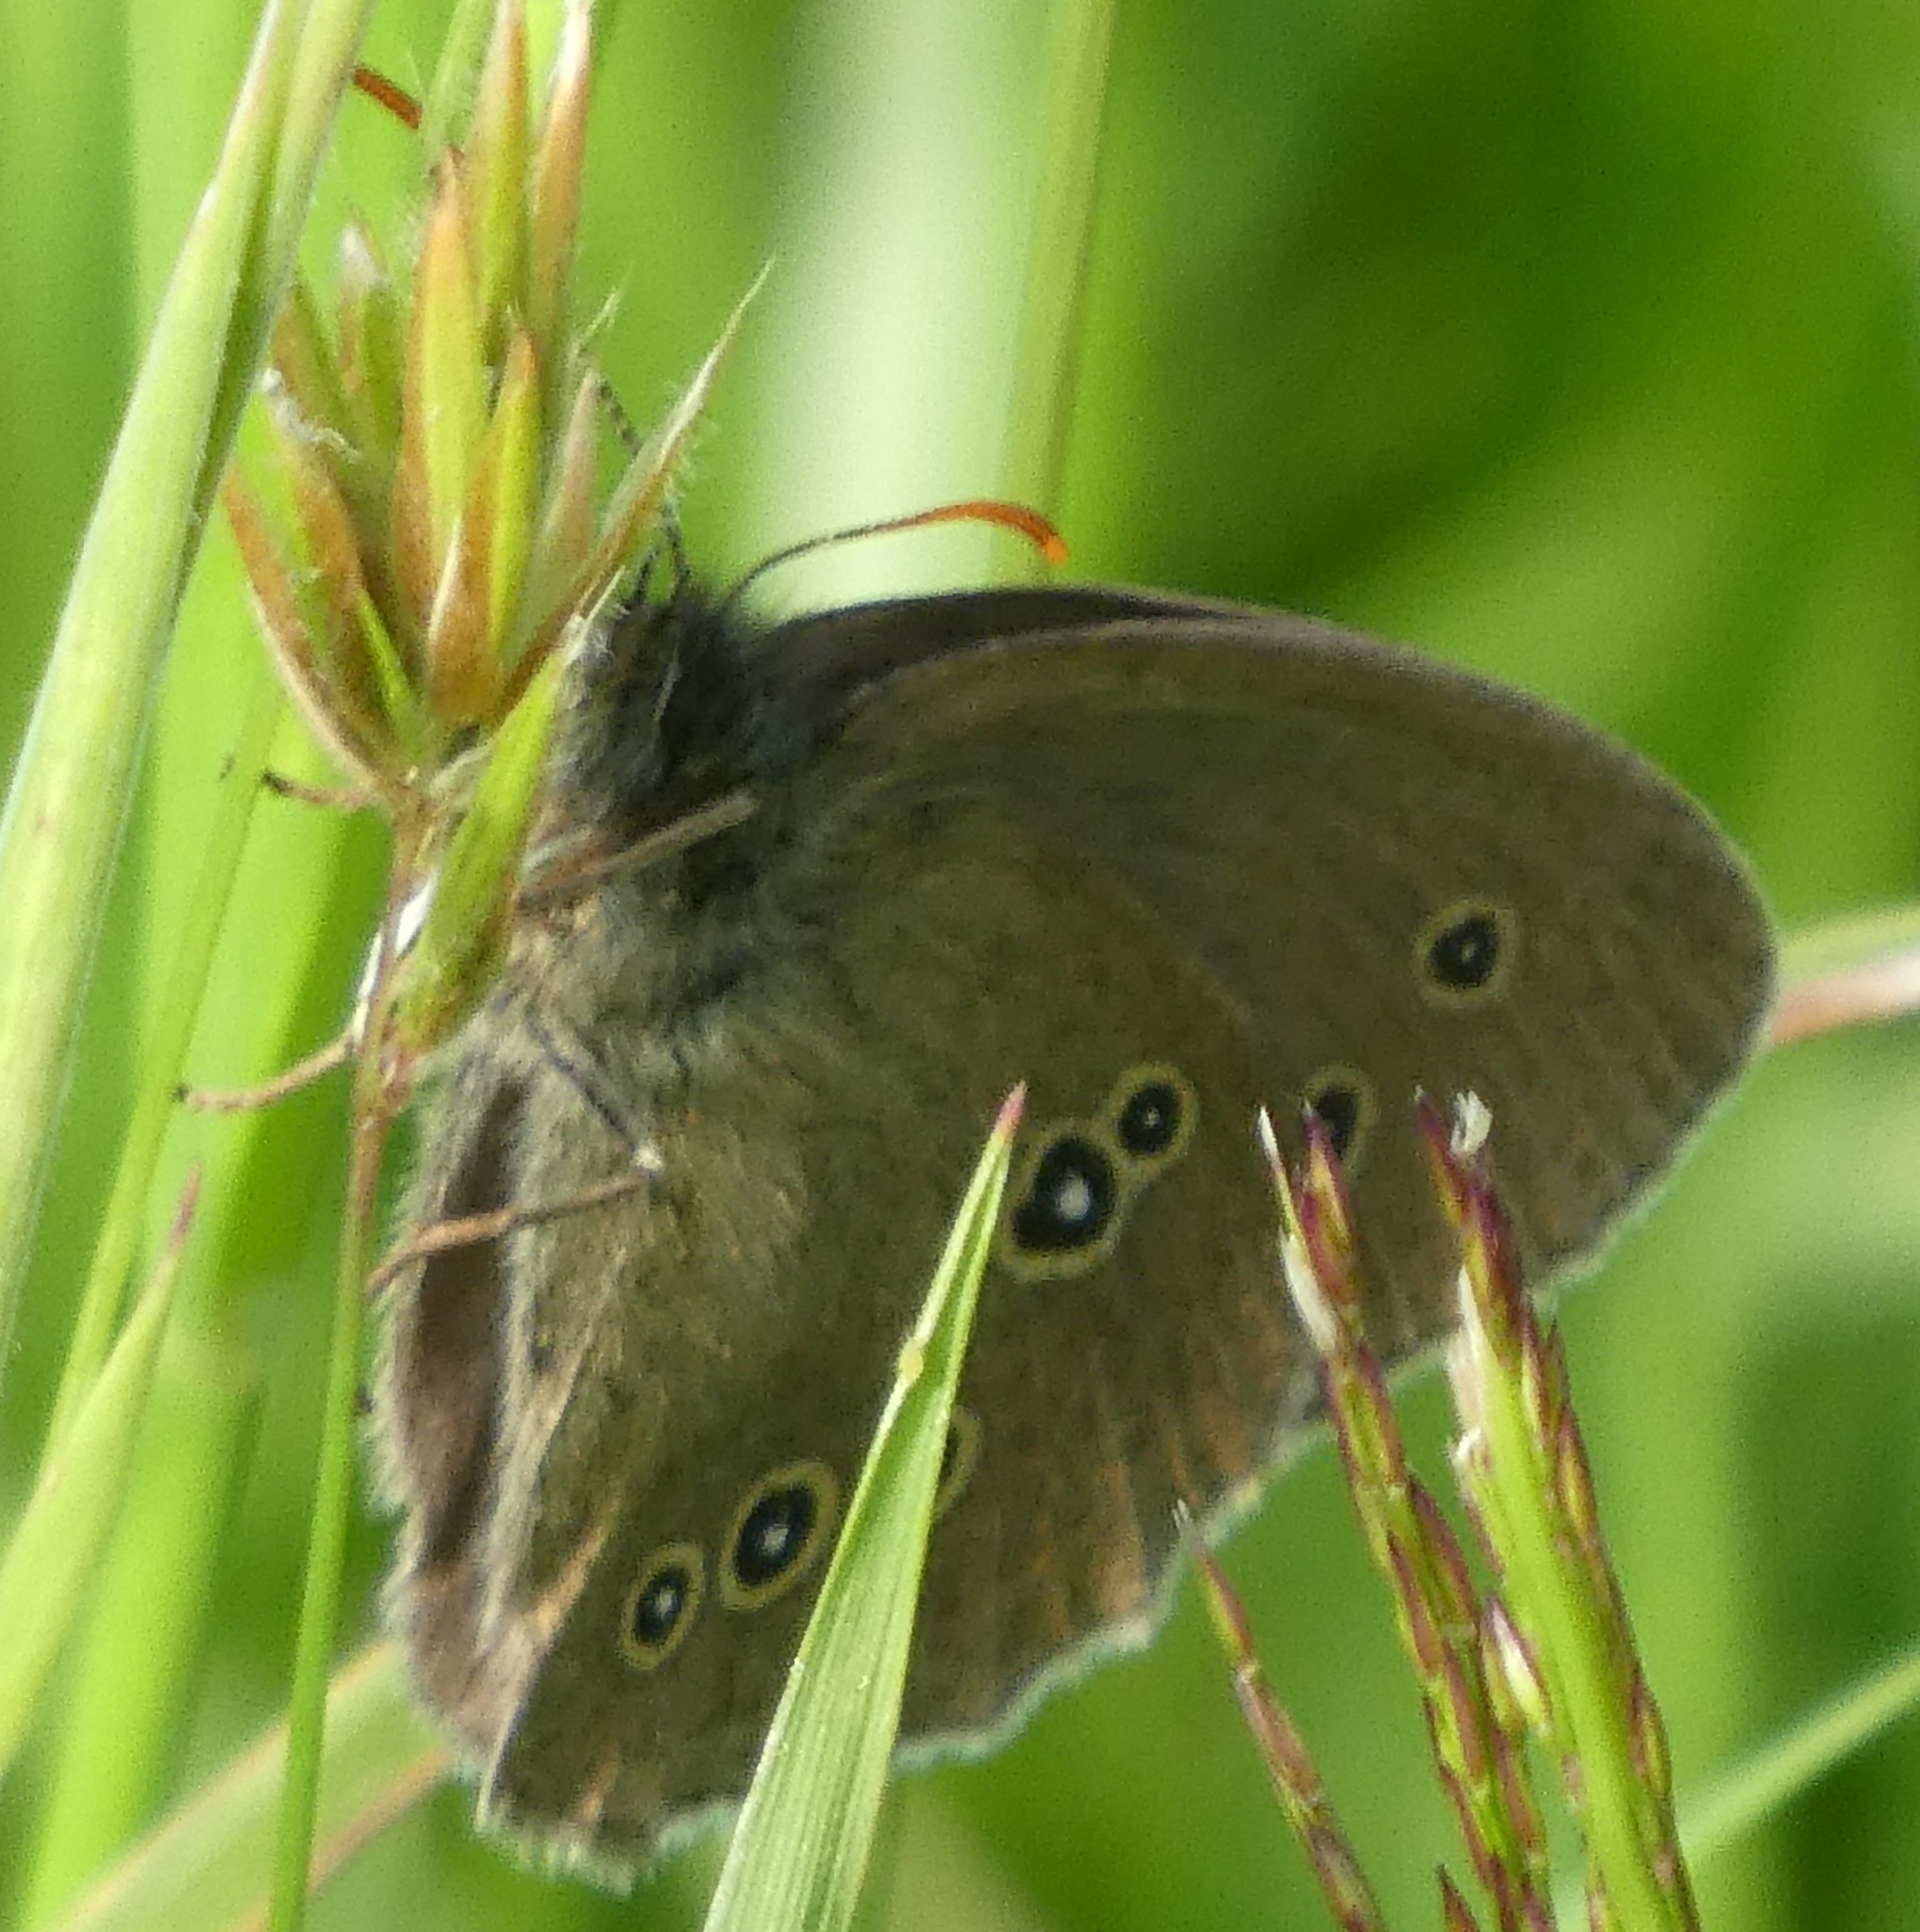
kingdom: Animalia
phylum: Arthropoda
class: Insecta
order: Lepidoptera
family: Nymphalidae
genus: Aphantopus
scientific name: Aphantopus hyperantus
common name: Ringlet
